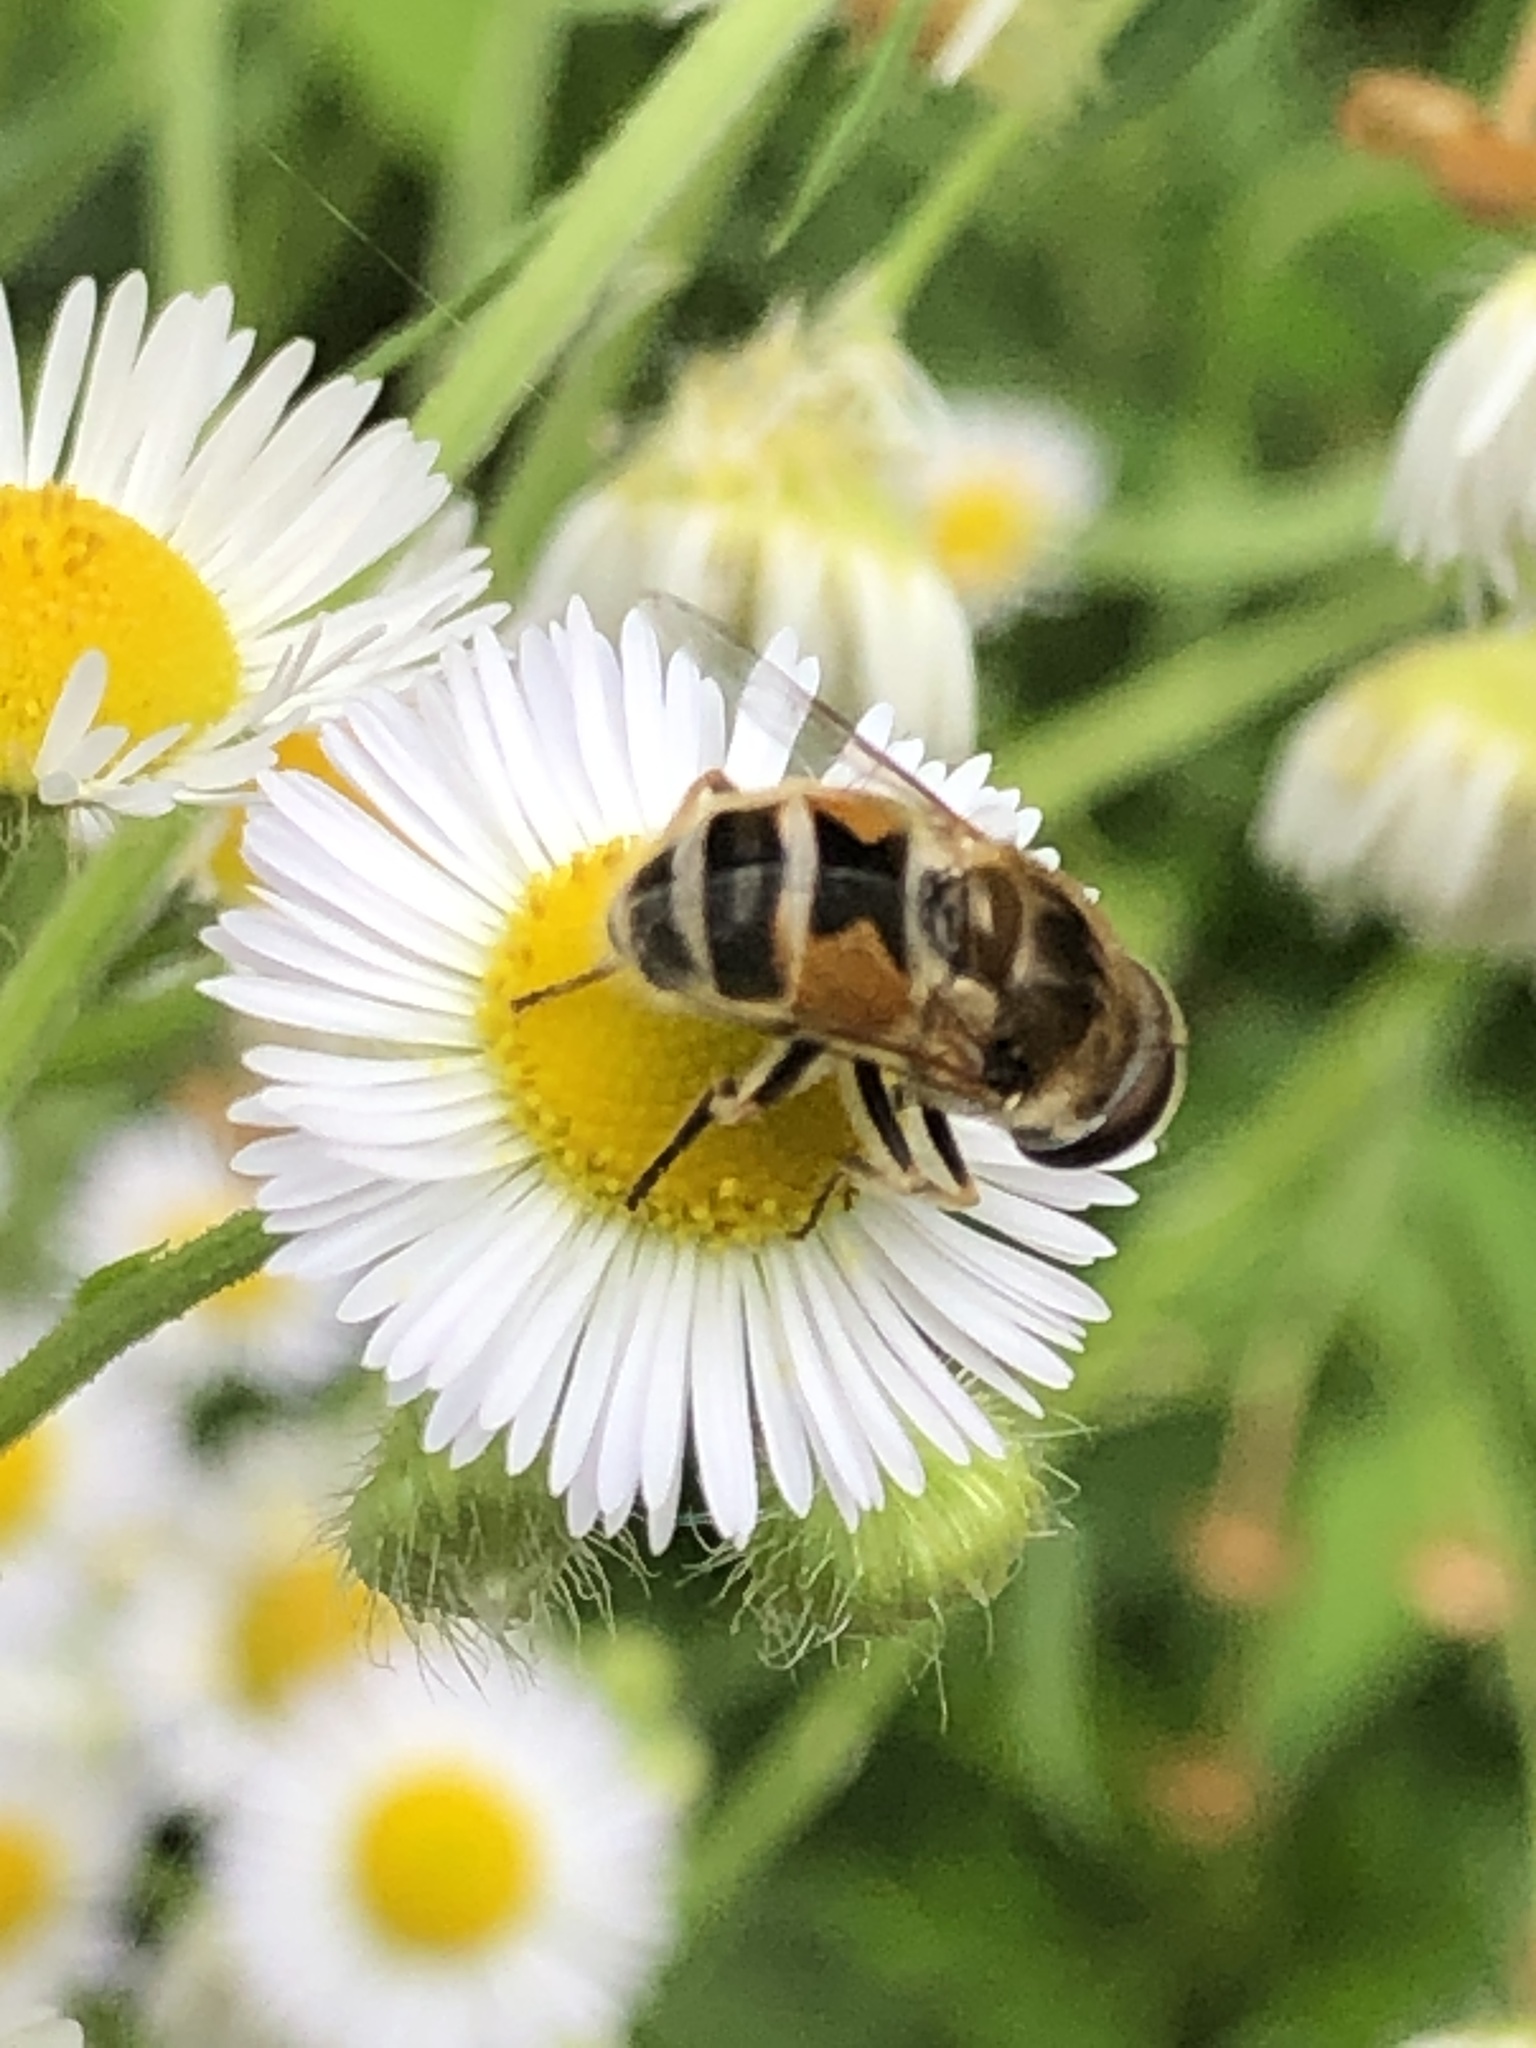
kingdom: Animalia
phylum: Arthropoda
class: Insecta
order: Diptera
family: Syrphidae
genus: Eristalis
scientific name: Eristalis arbustorum
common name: Hover fly
